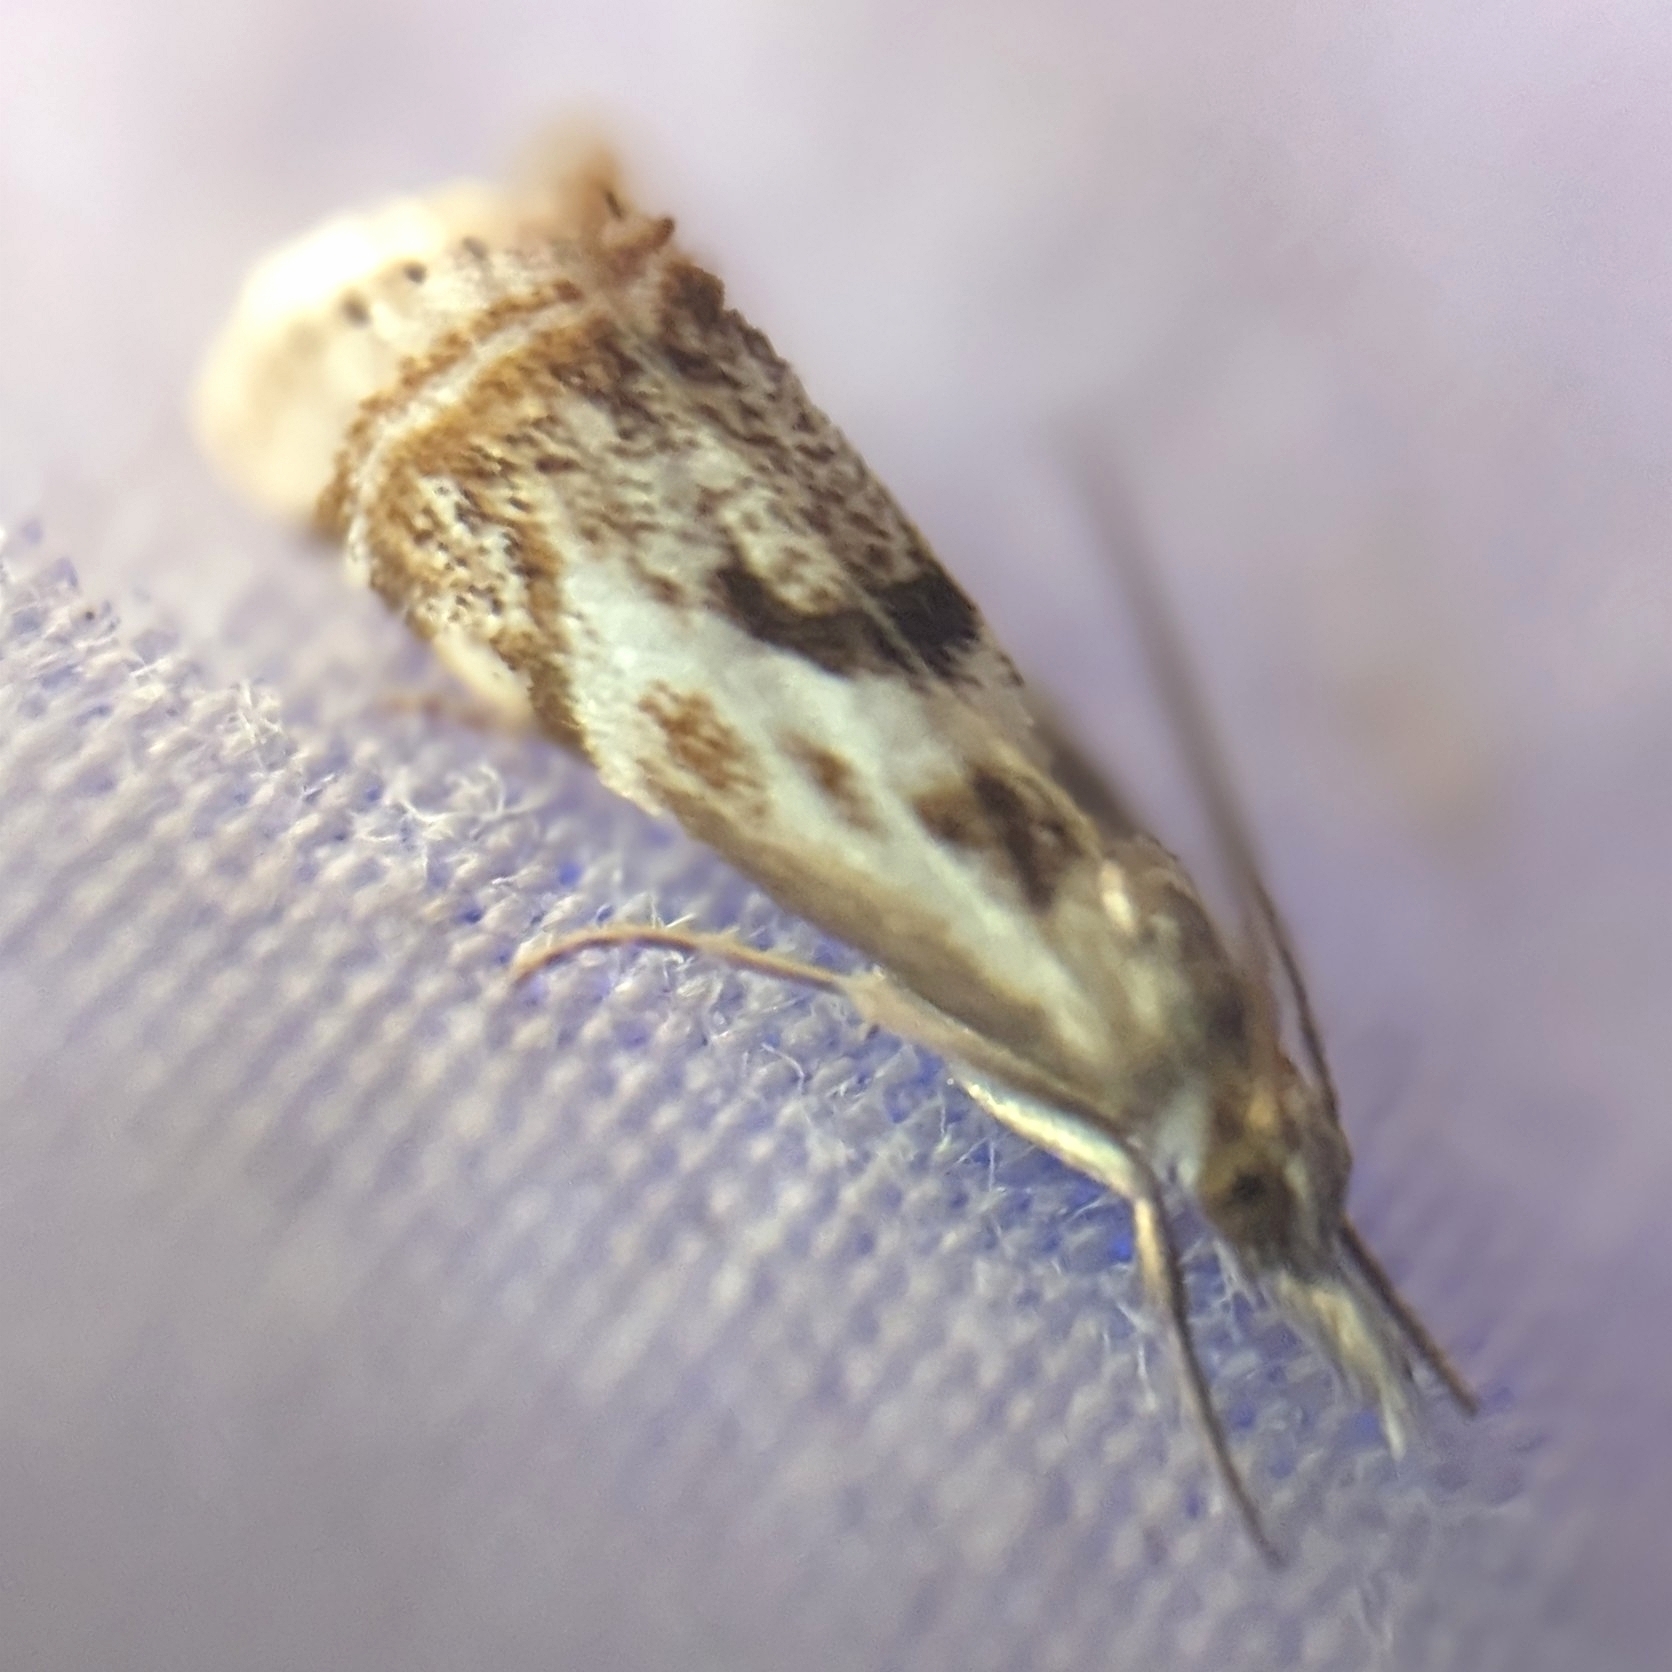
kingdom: Animalia
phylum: Arthropoda
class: Insecta
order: Lepidoptera
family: Crambidae
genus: Microcrambus
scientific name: Microcrambus elegans
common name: Elegant grass-veneer
